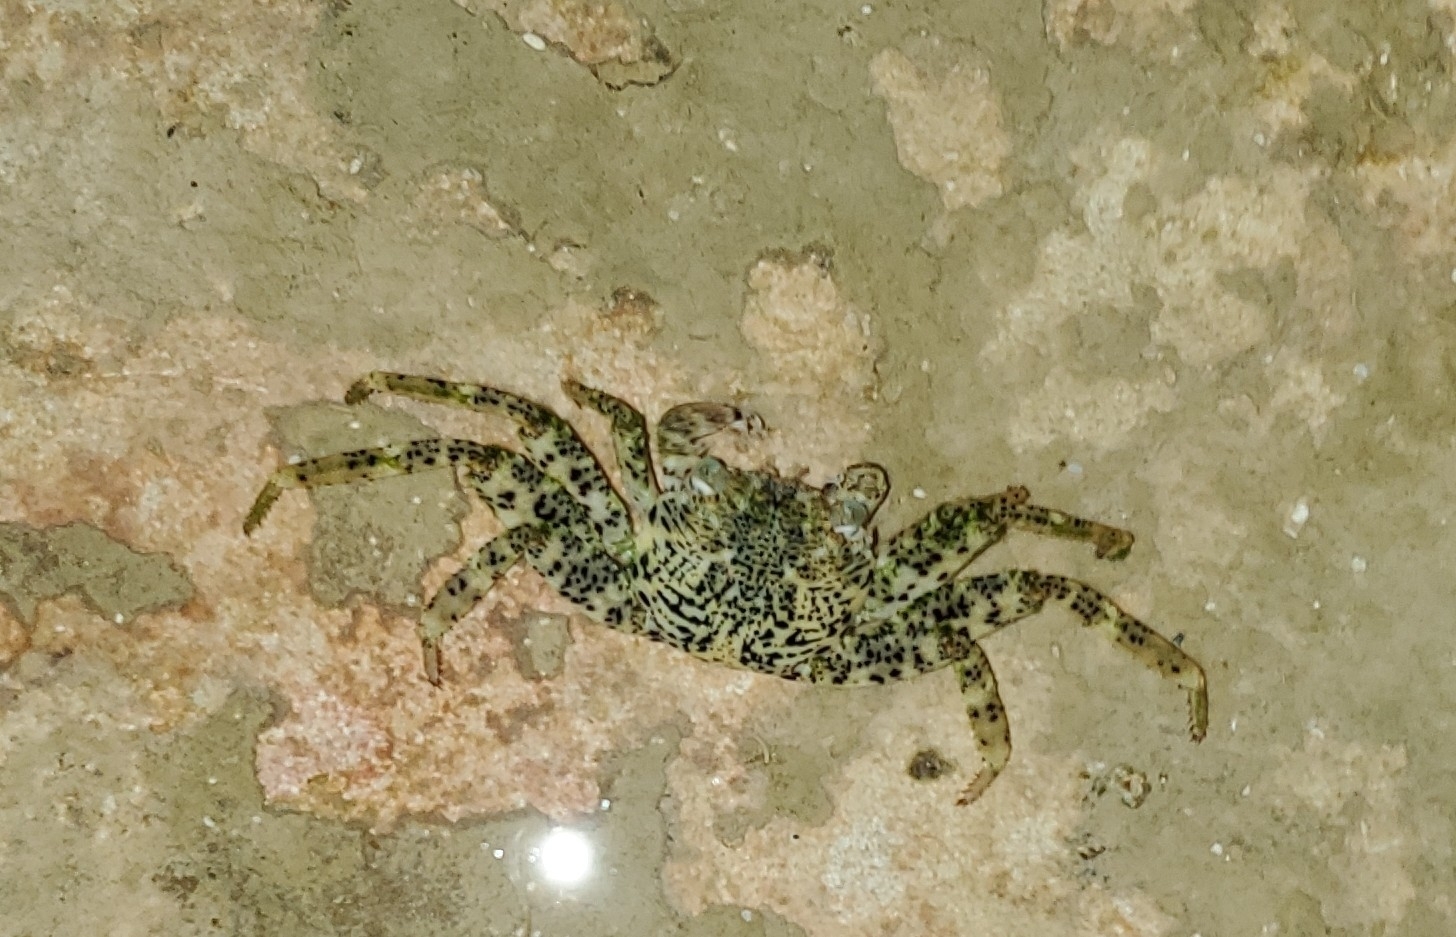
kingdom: Animalia
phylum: Arthropoda
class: Malacostraca
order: Decapoda
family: Grapsidae
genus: Grapsus
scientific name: Grapsus longitarsis
